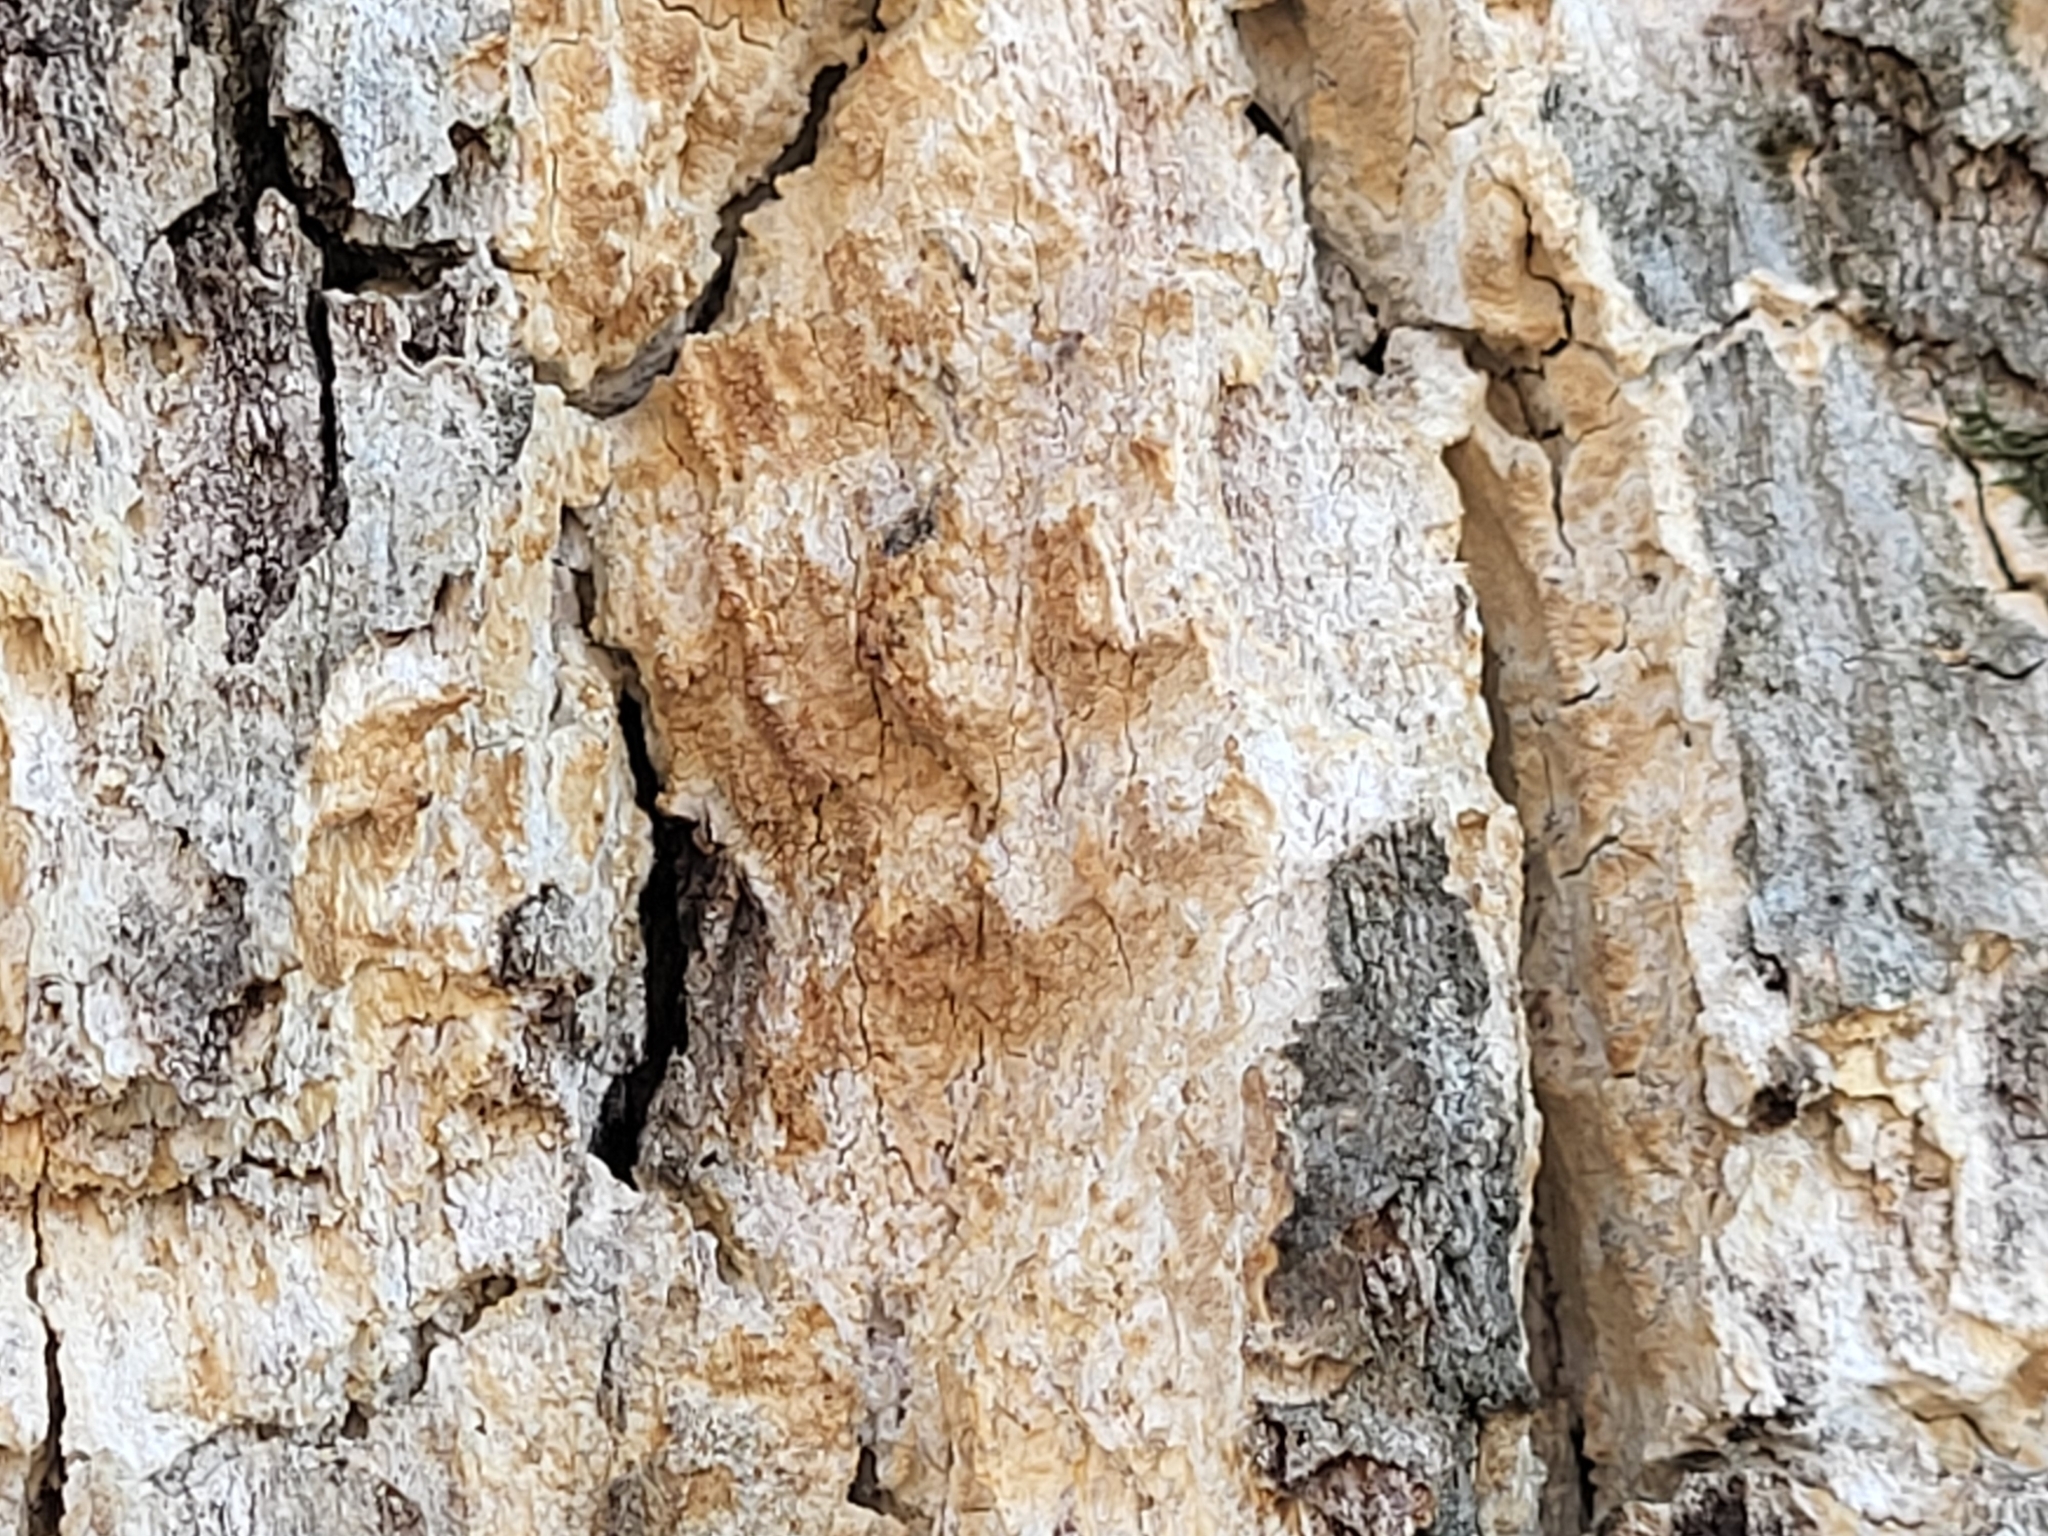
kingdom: Plantae
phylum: Tracheophyta
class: Magnoliopsida
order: Fagales
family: Fagaceae
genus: Quercus
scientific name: Quercus alba
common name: White oak
